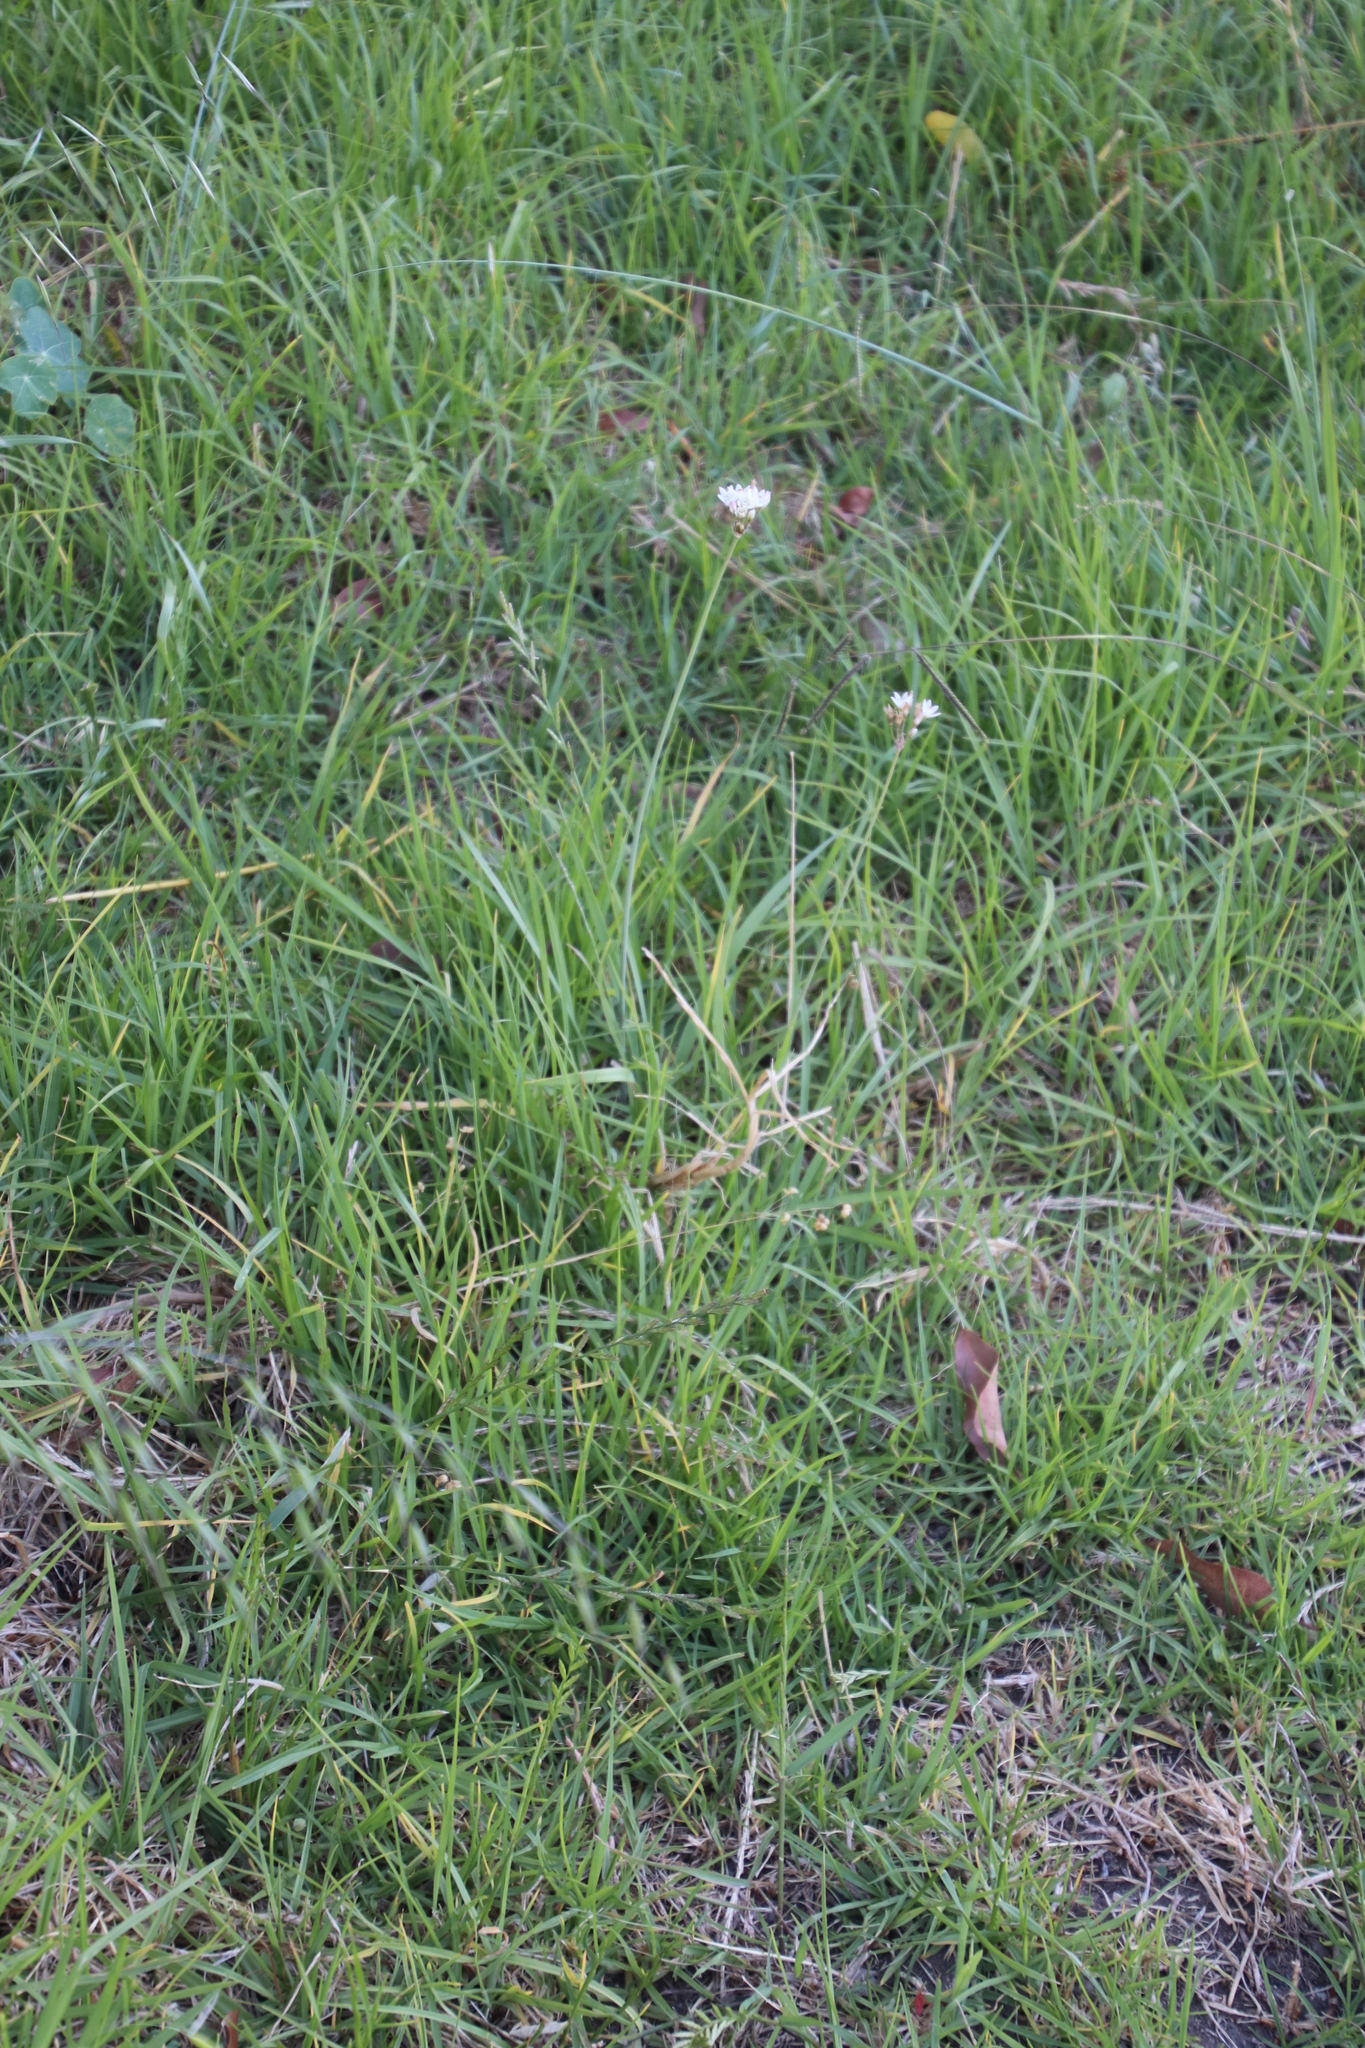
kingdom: Plantae
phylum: Tracheophyta
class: Liliopsida
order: Asparagales
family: Amaryllidaceae
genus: Nothoscordum
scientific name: Nothoscordum gracile
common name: Slender false garlic
